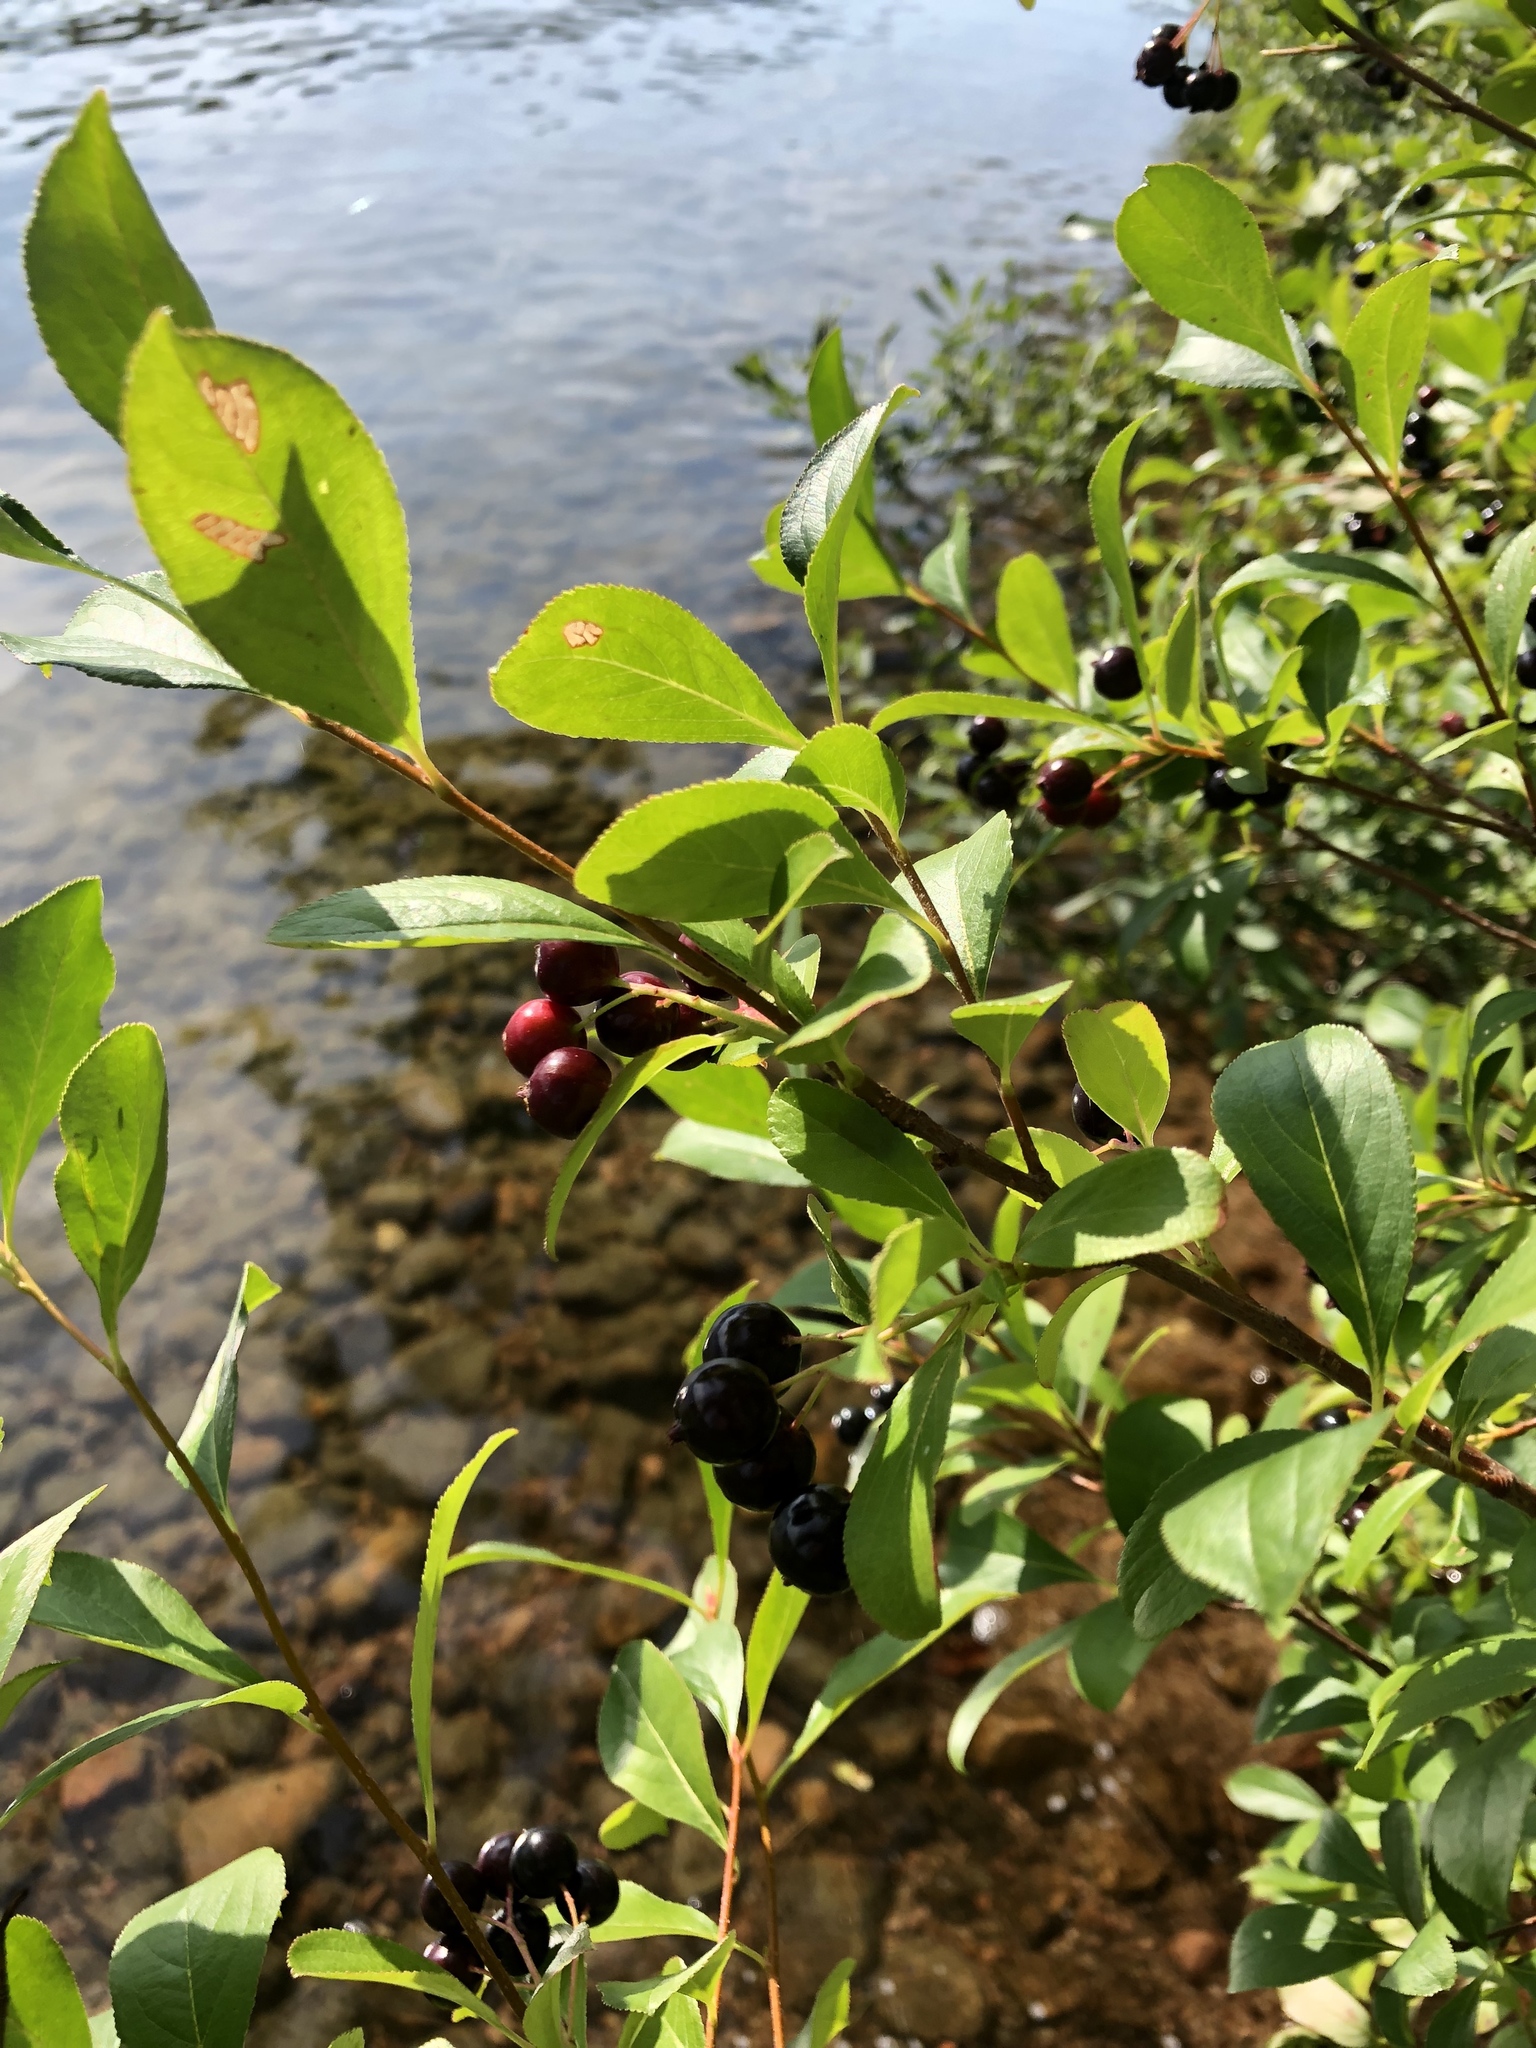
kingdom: Plantae
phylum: Tracheophyta
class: Magnoliopsida
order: Rosales
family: Rosaceae
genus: Aronia
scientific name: Aronia melanocarpa
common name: Black chokeberry
